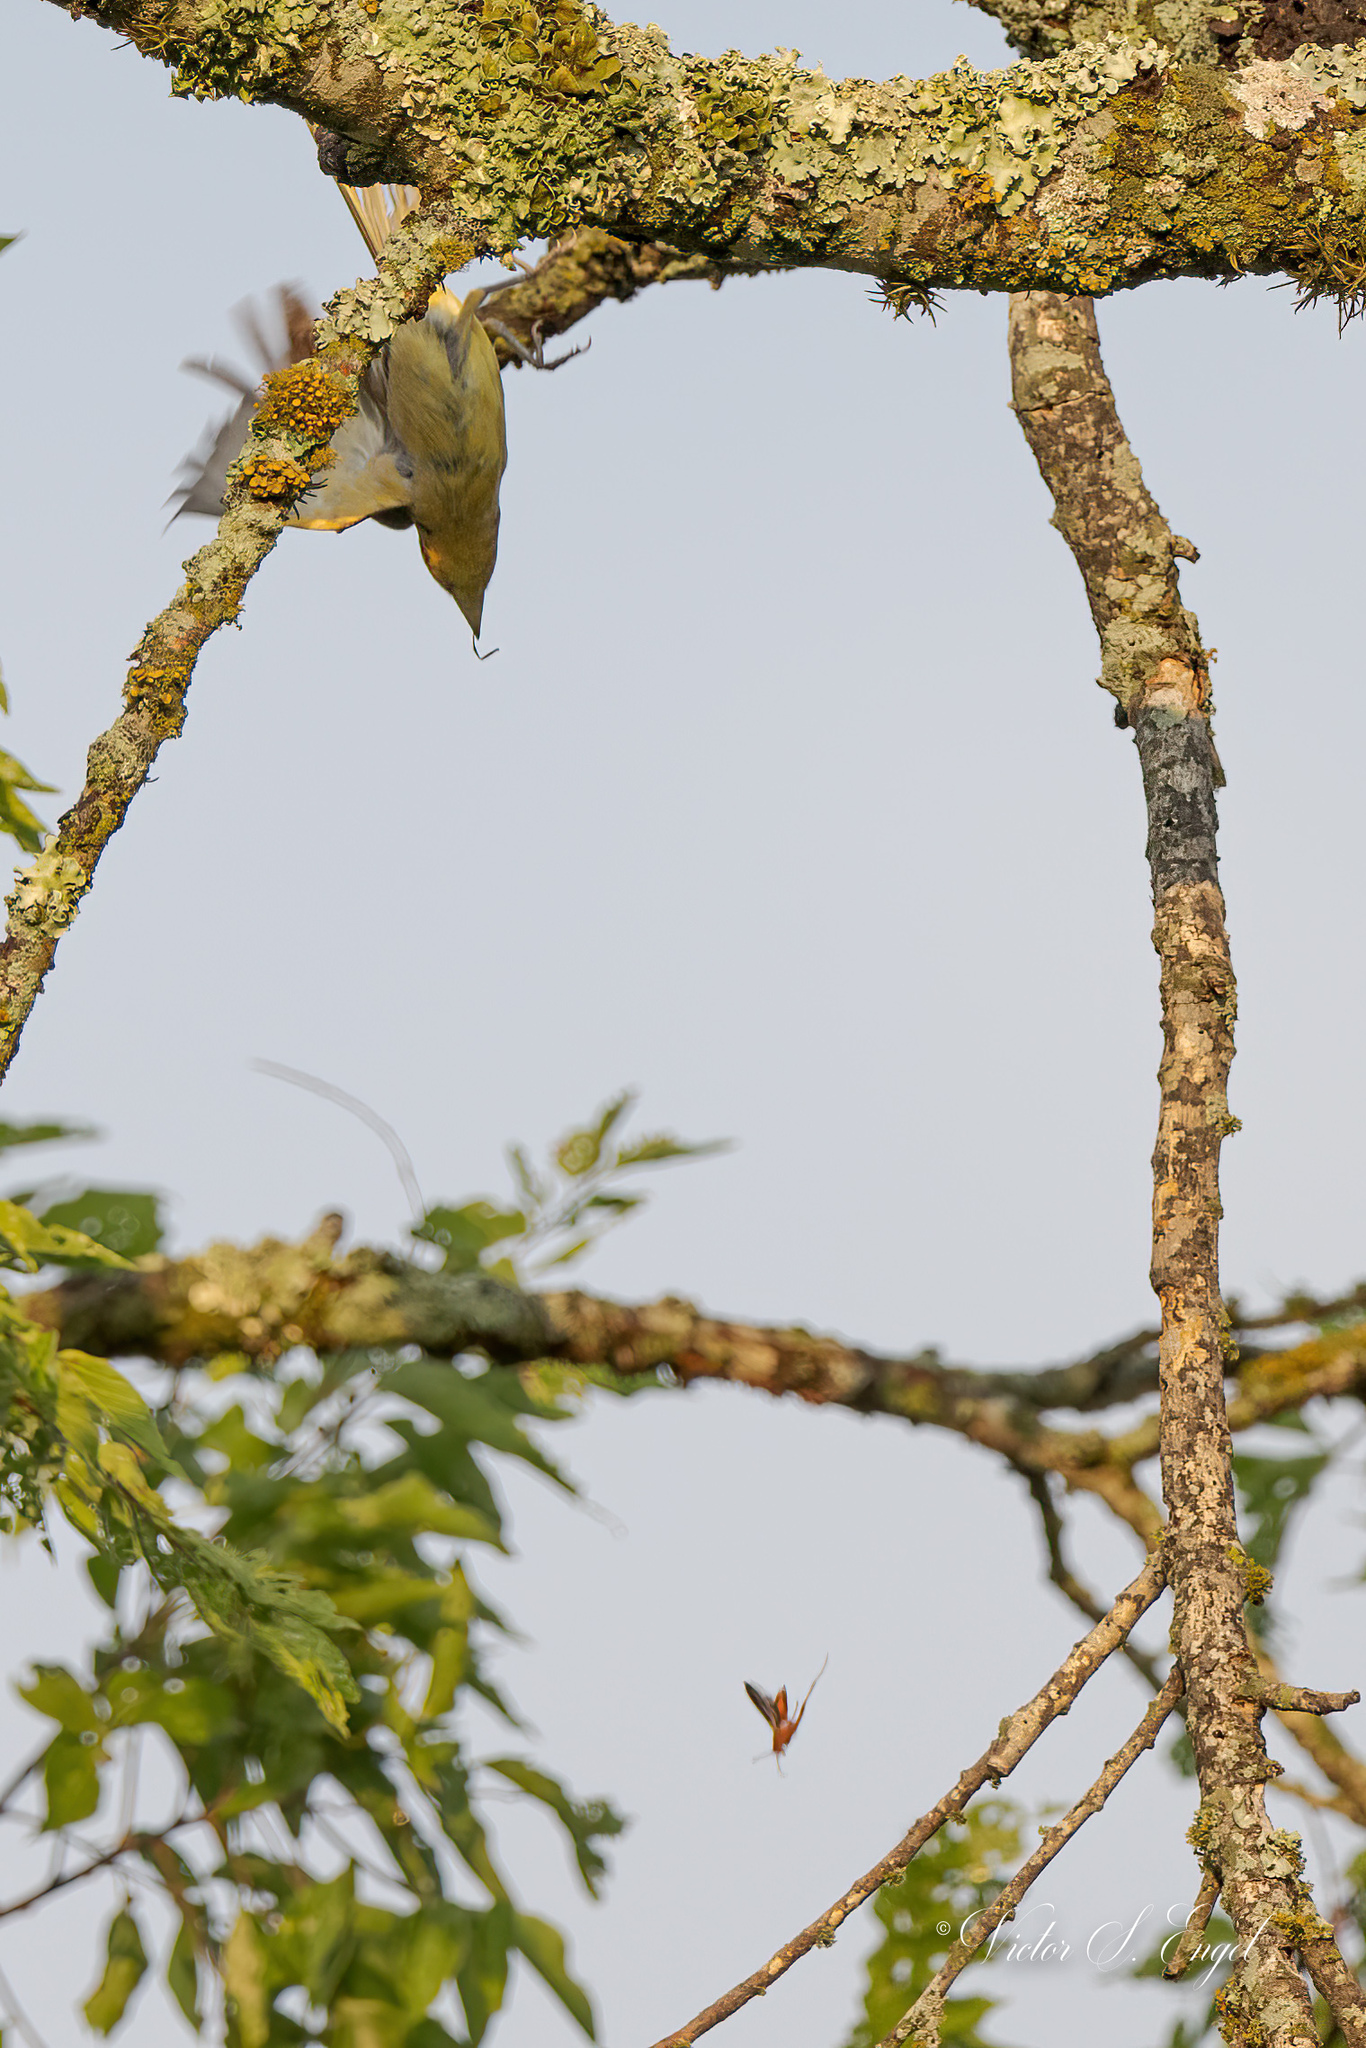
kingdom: Animalia
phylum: Chordata
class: Aves
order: Passeriformes
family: Cardinalidae
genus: Piranga
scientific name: Piranga rubra
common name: Summer tanager
